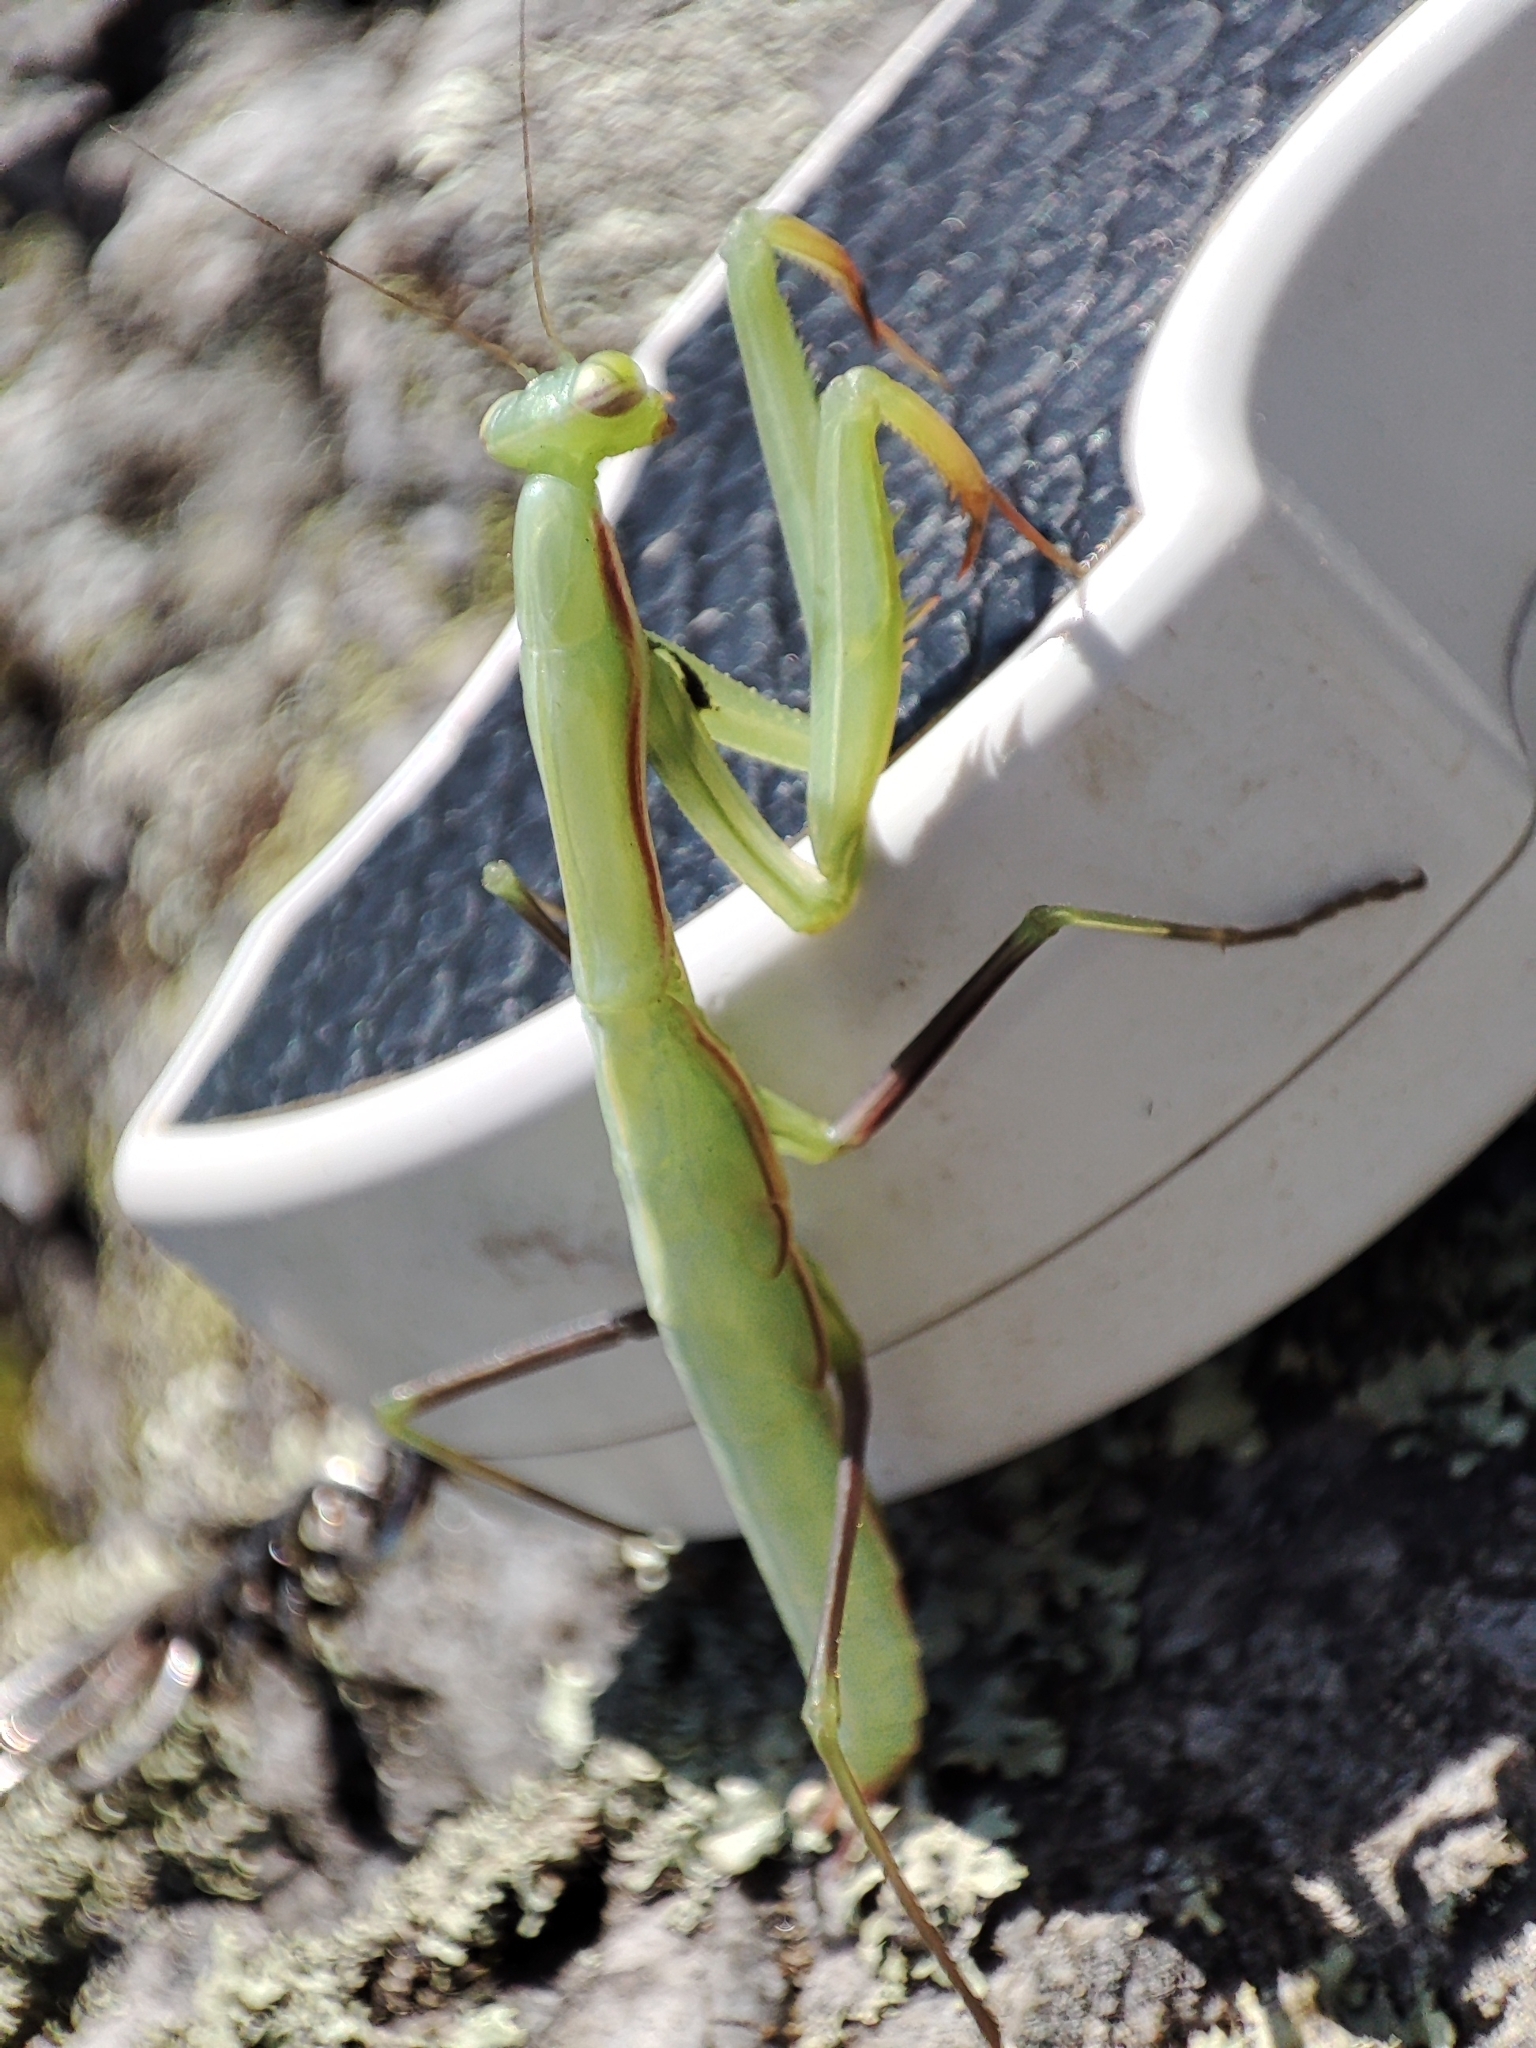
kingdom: Animalia
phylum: Arthropoda
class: Insecta
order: Mantodea
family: Mantidae
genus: Mantis
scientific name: Mantis religiosa
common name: Praying mantis
